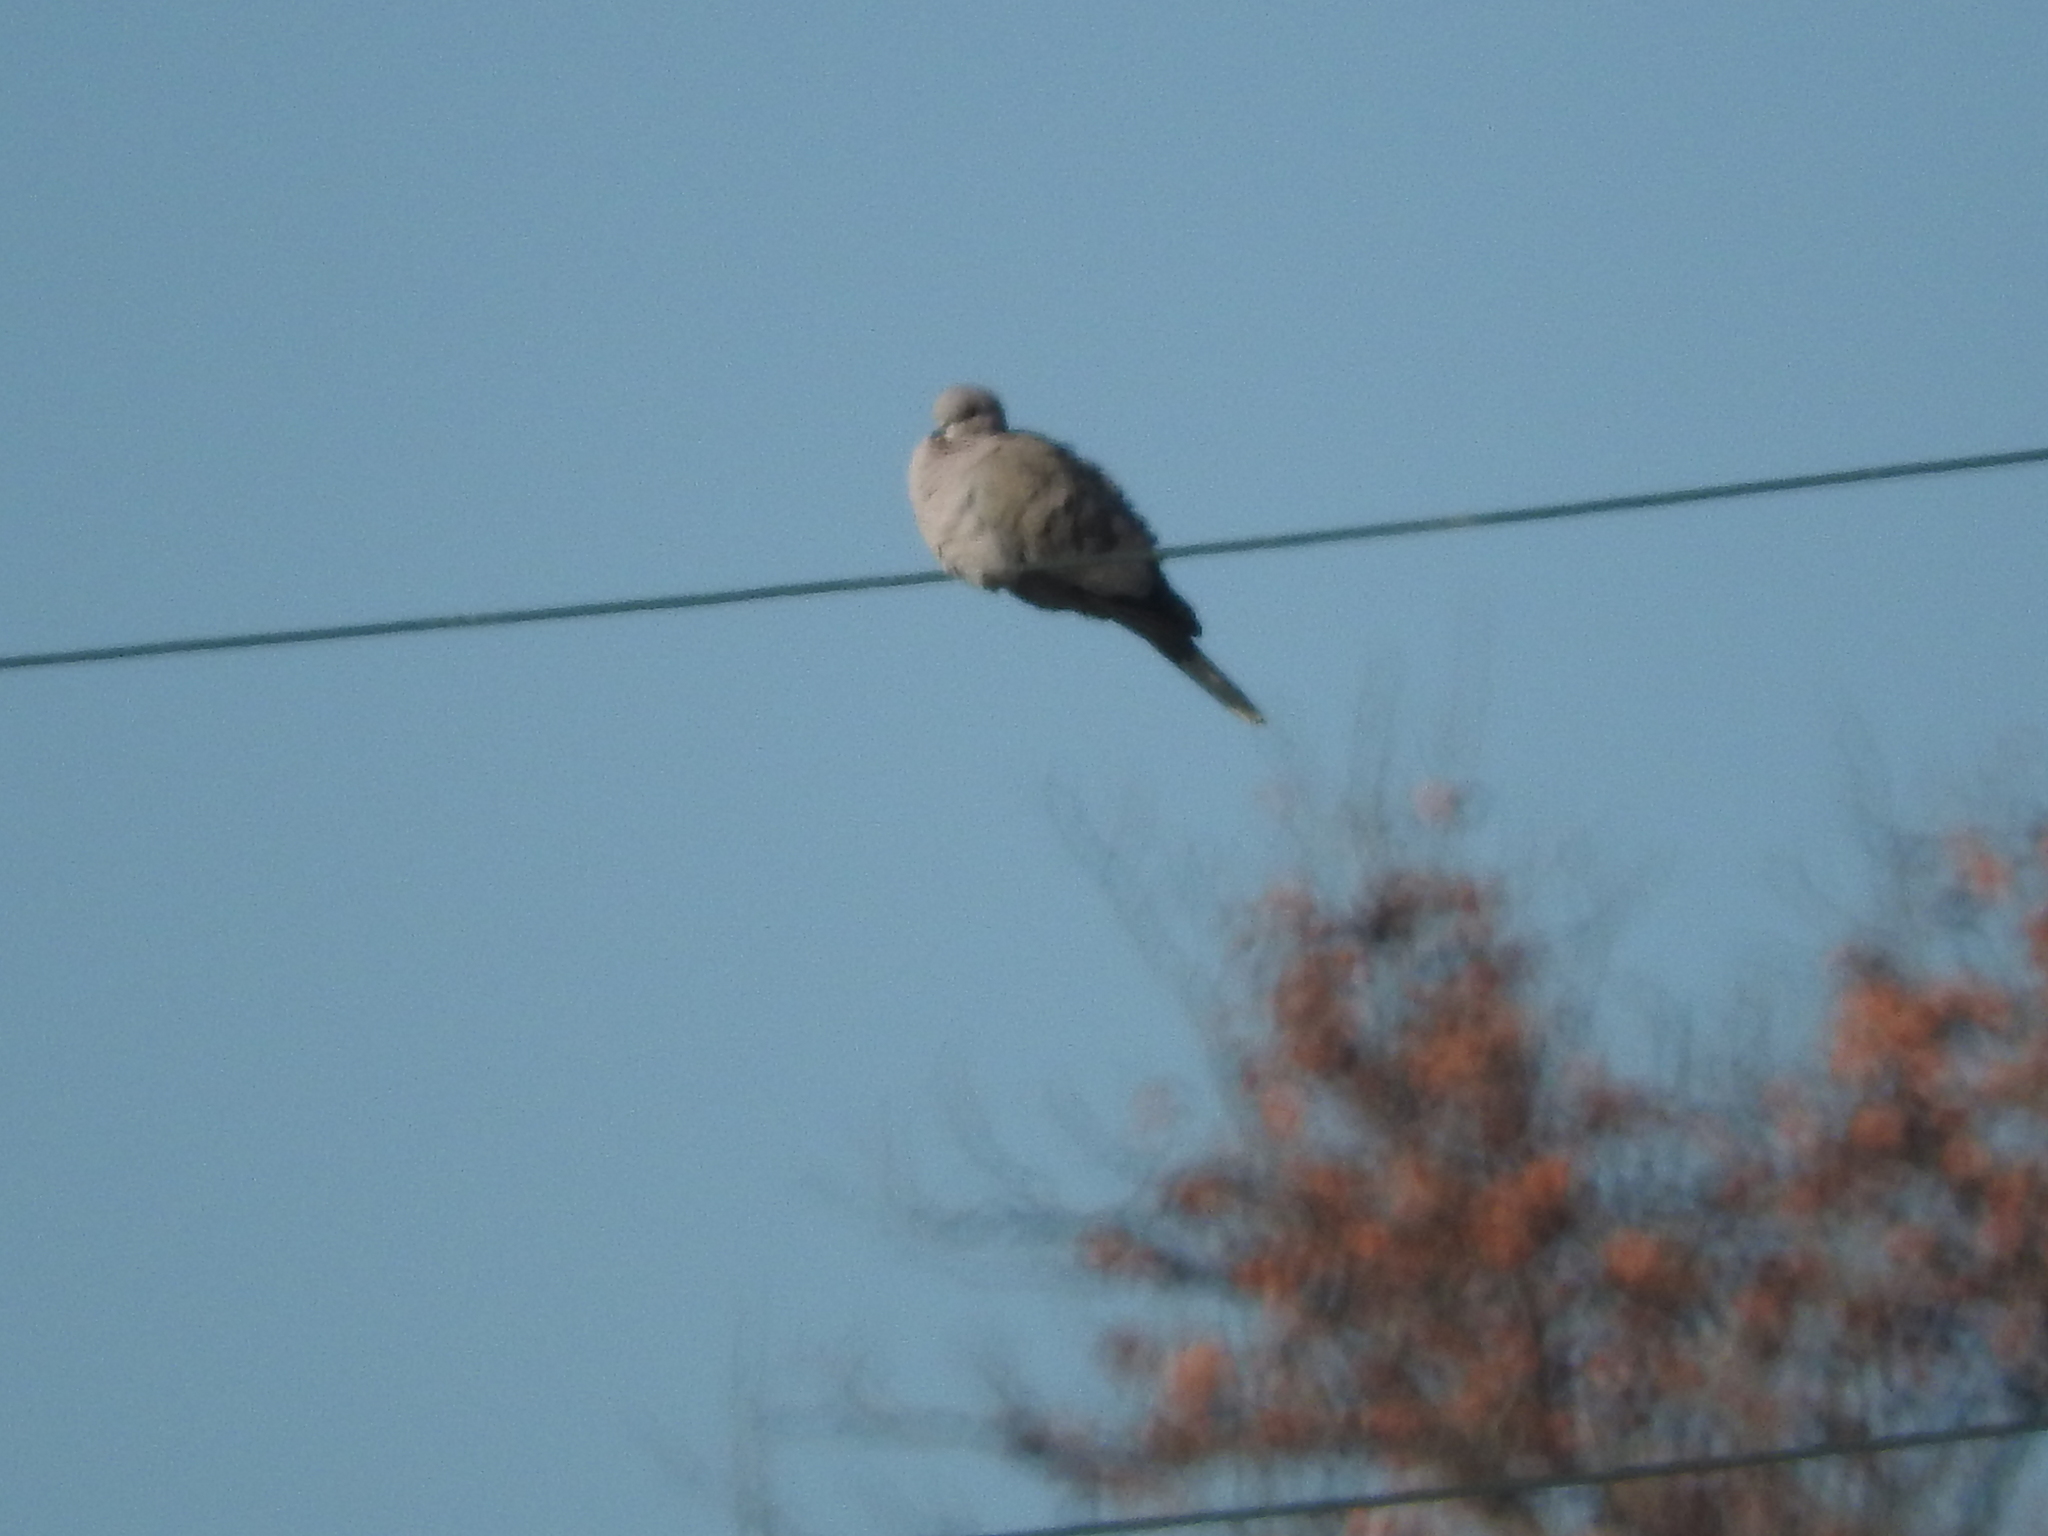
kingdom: Animalia
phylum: Chordata
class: Aves
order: Columbiformes
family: Columbidae
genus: Streptopelia
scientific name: Streptopelia decaocto
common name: Eurasian collared dove
